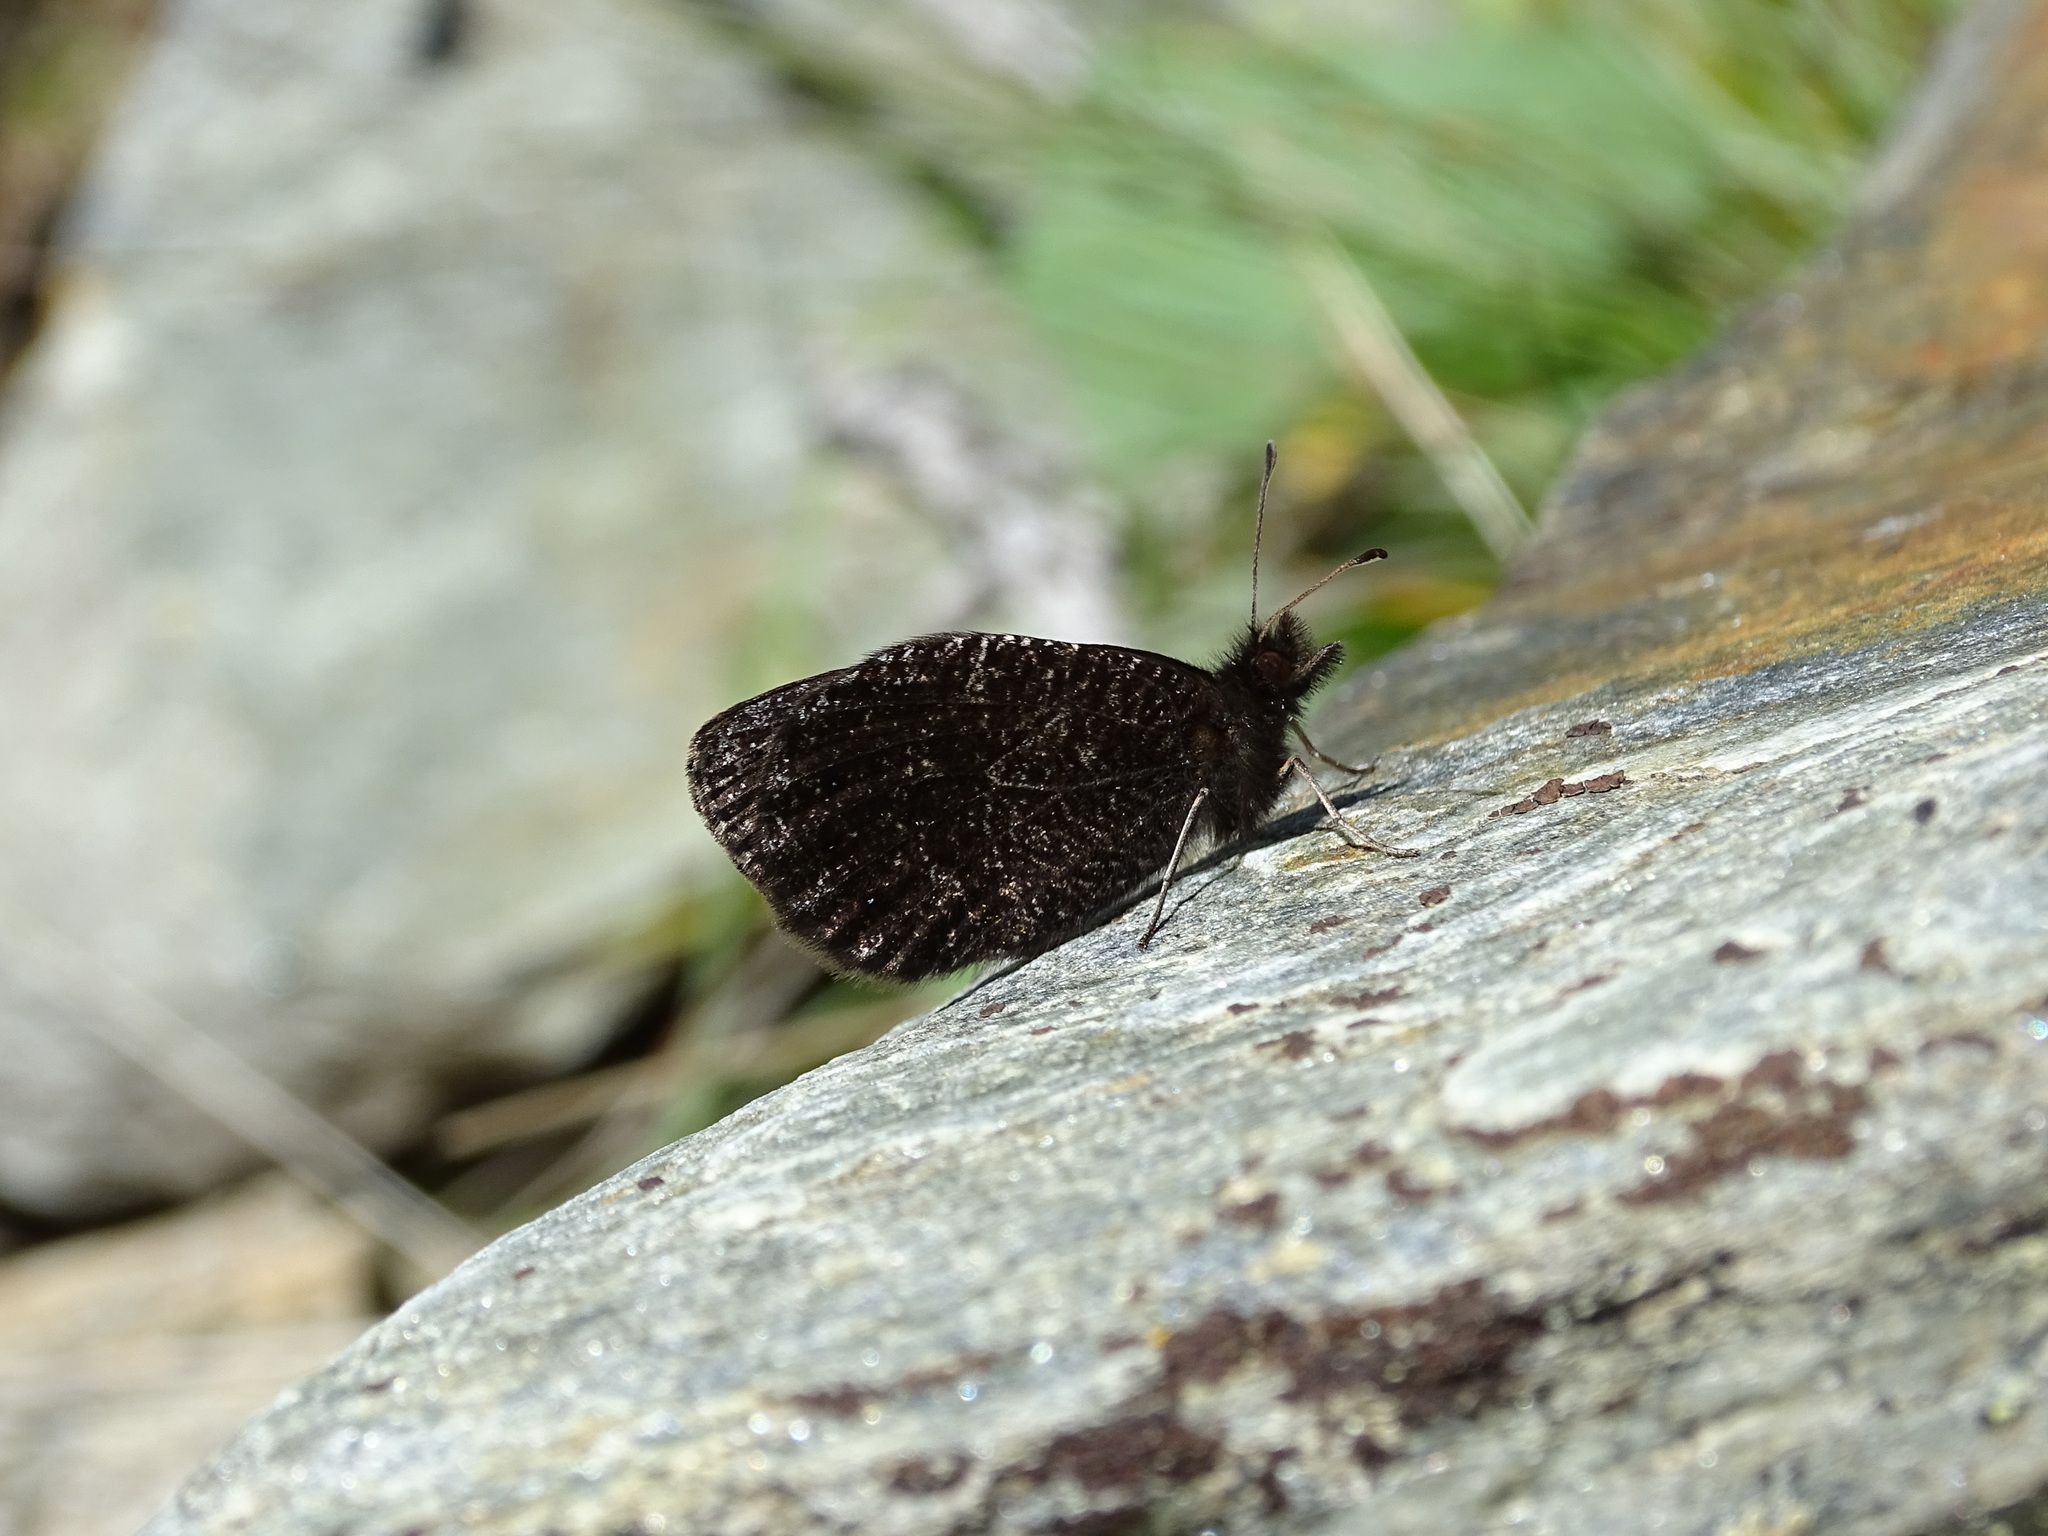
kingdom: Animalia
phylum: Arthropoda
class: Insecta
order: Lepidoptera
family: Nymphalidae
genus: Erebia
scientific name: Erebia montanus
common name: Marbled ringlet
